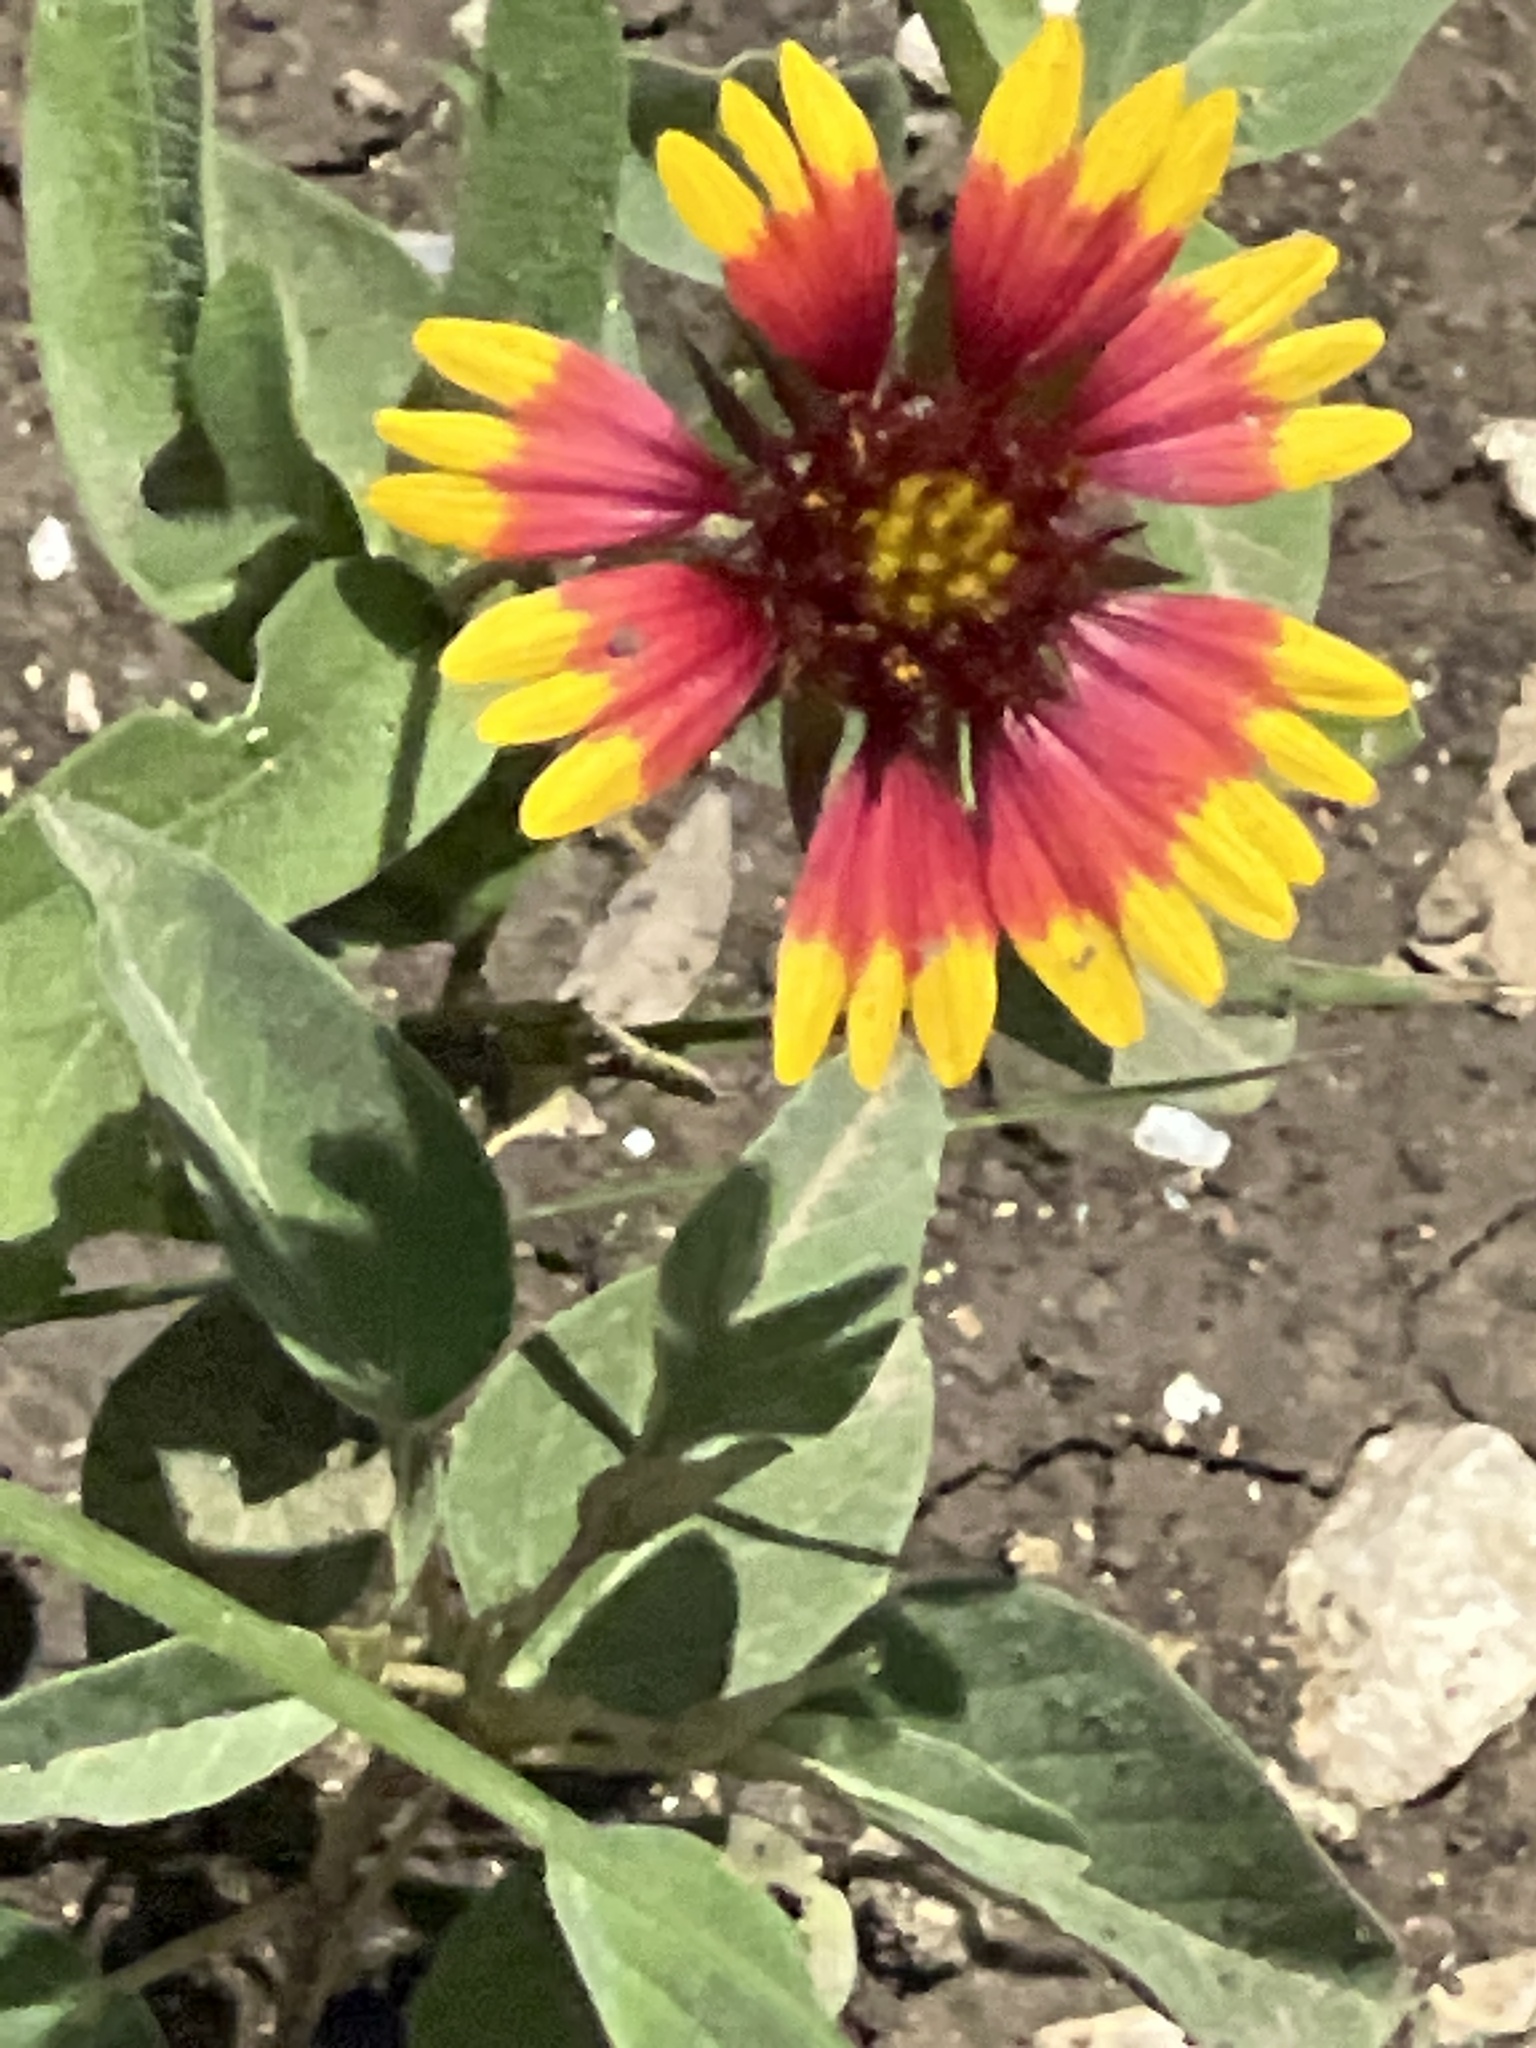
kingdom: Plantae
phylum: Tracheophyta
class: Magnoliopsida
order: Asterales
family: Asteraceae
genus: Gaillardia
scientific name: Gaillardia pulchella
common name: Firewheel
